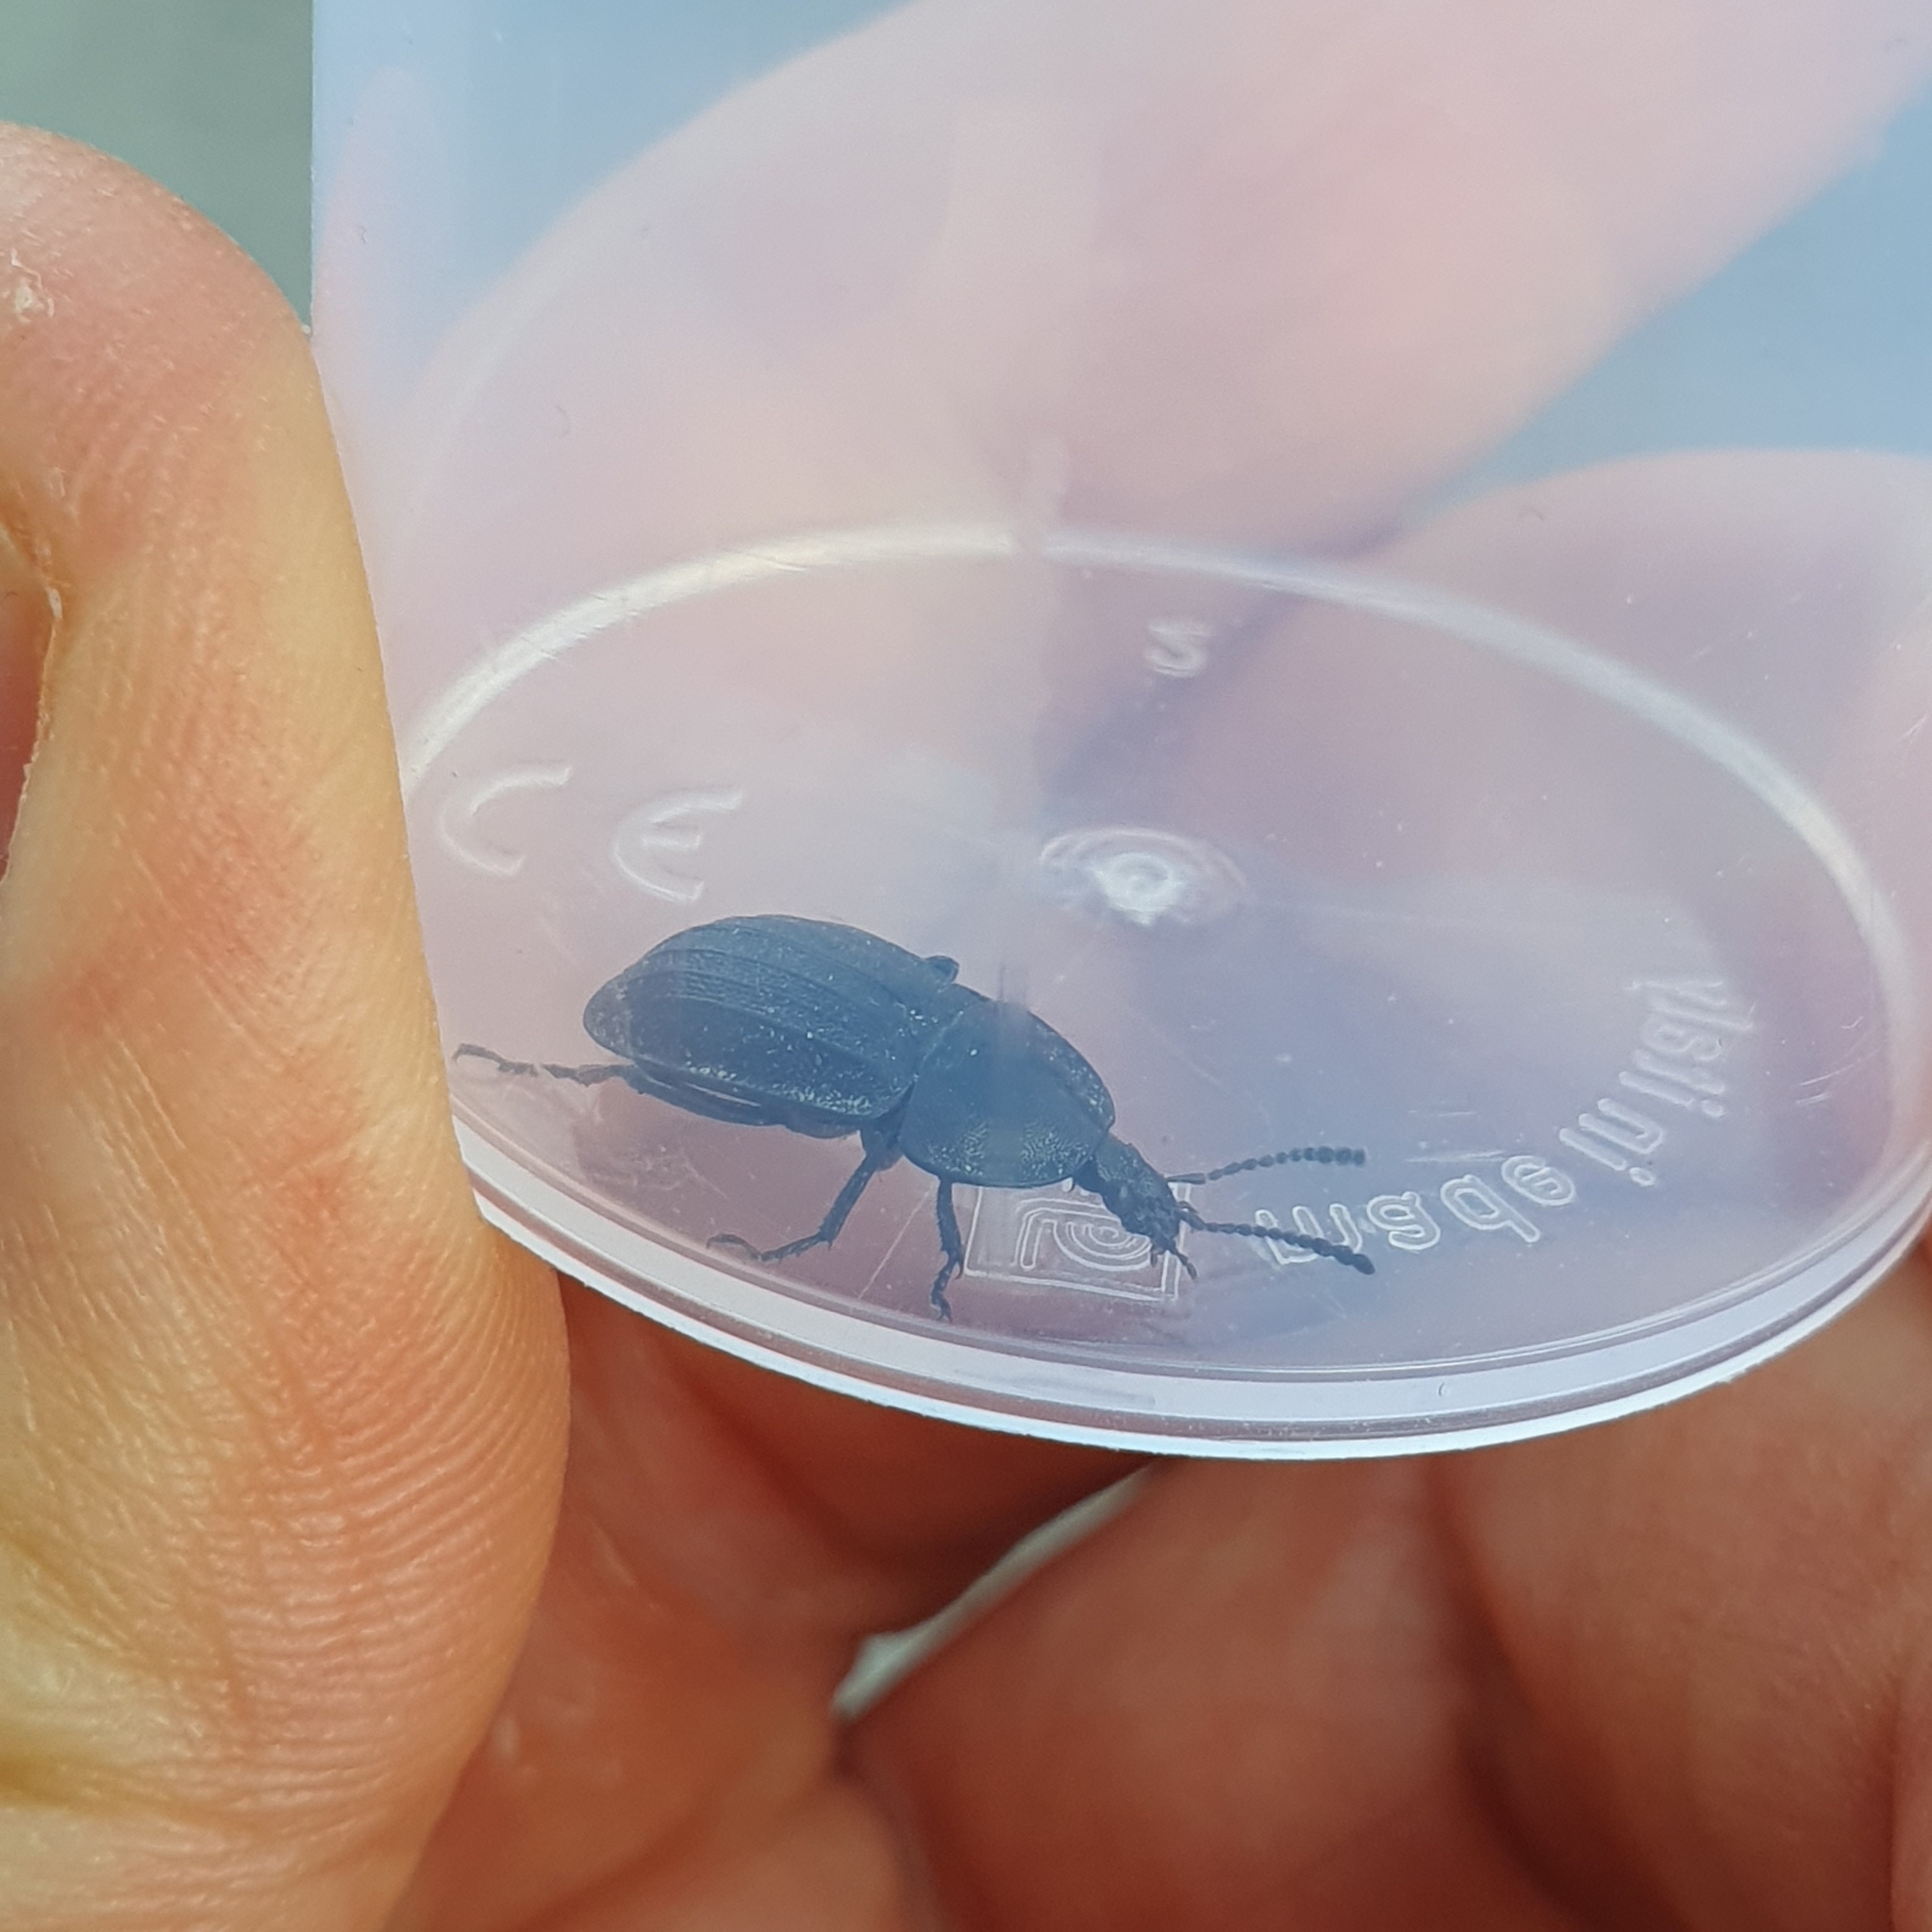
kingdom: Animalia
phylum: Arthropoda
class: Insecta
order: Coleoptera
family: Staphylinidae
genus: Silpha
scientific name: Silpha atrata
